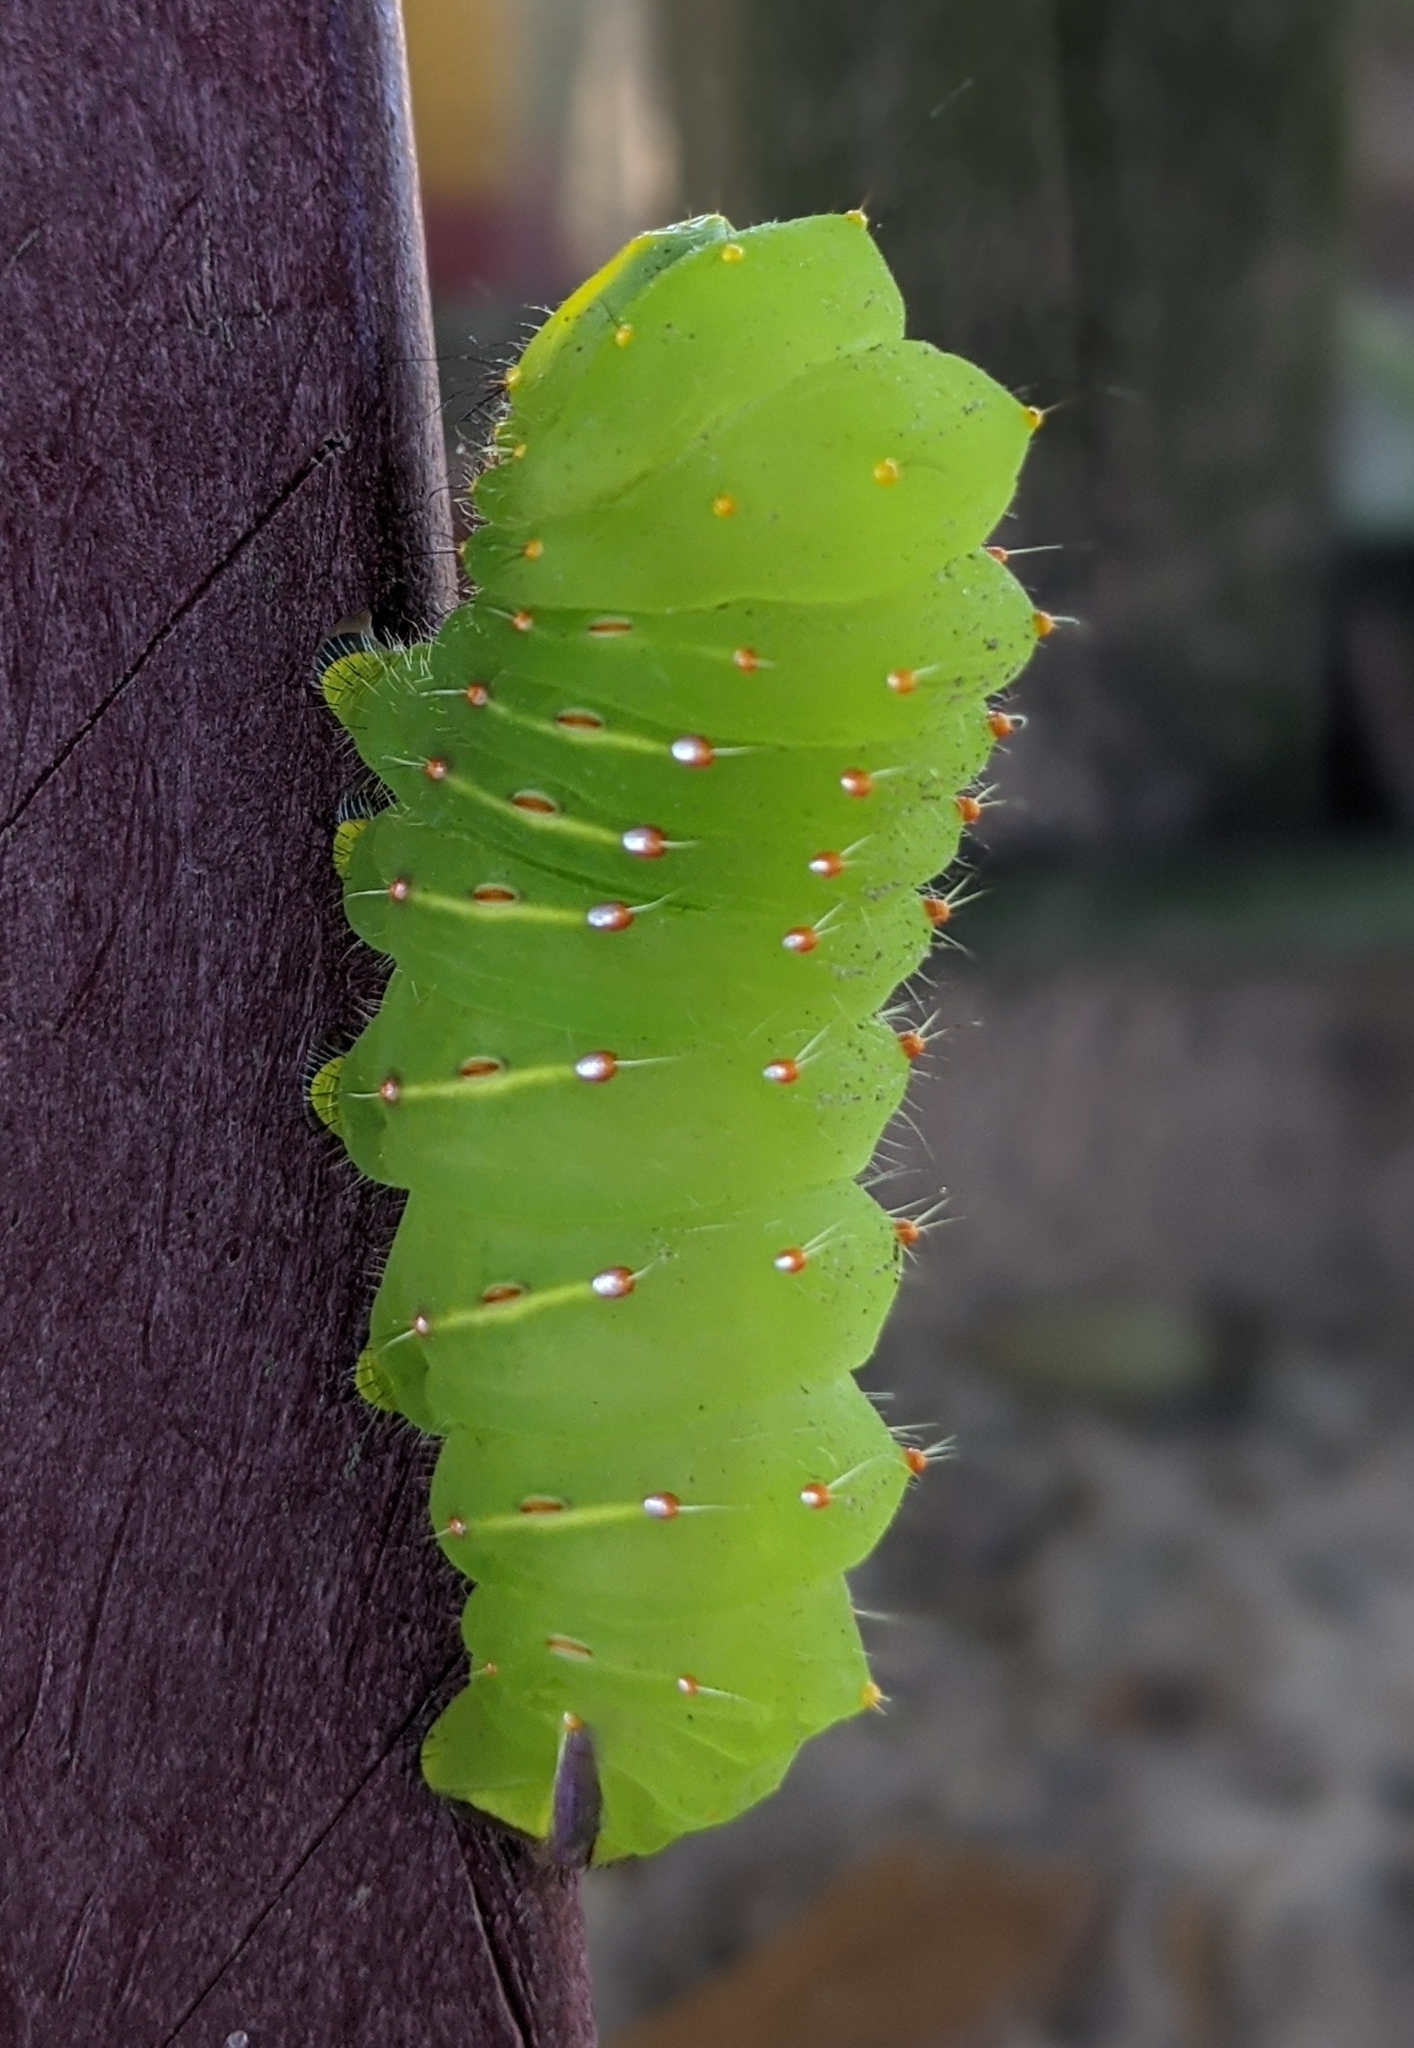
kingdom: Animalia
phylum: Arthropoda
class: Insecta
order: Lepidoptera
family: Saturniidae
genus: Antheraea
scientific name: Antheraea polyphemus
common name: Polyphemus moth
